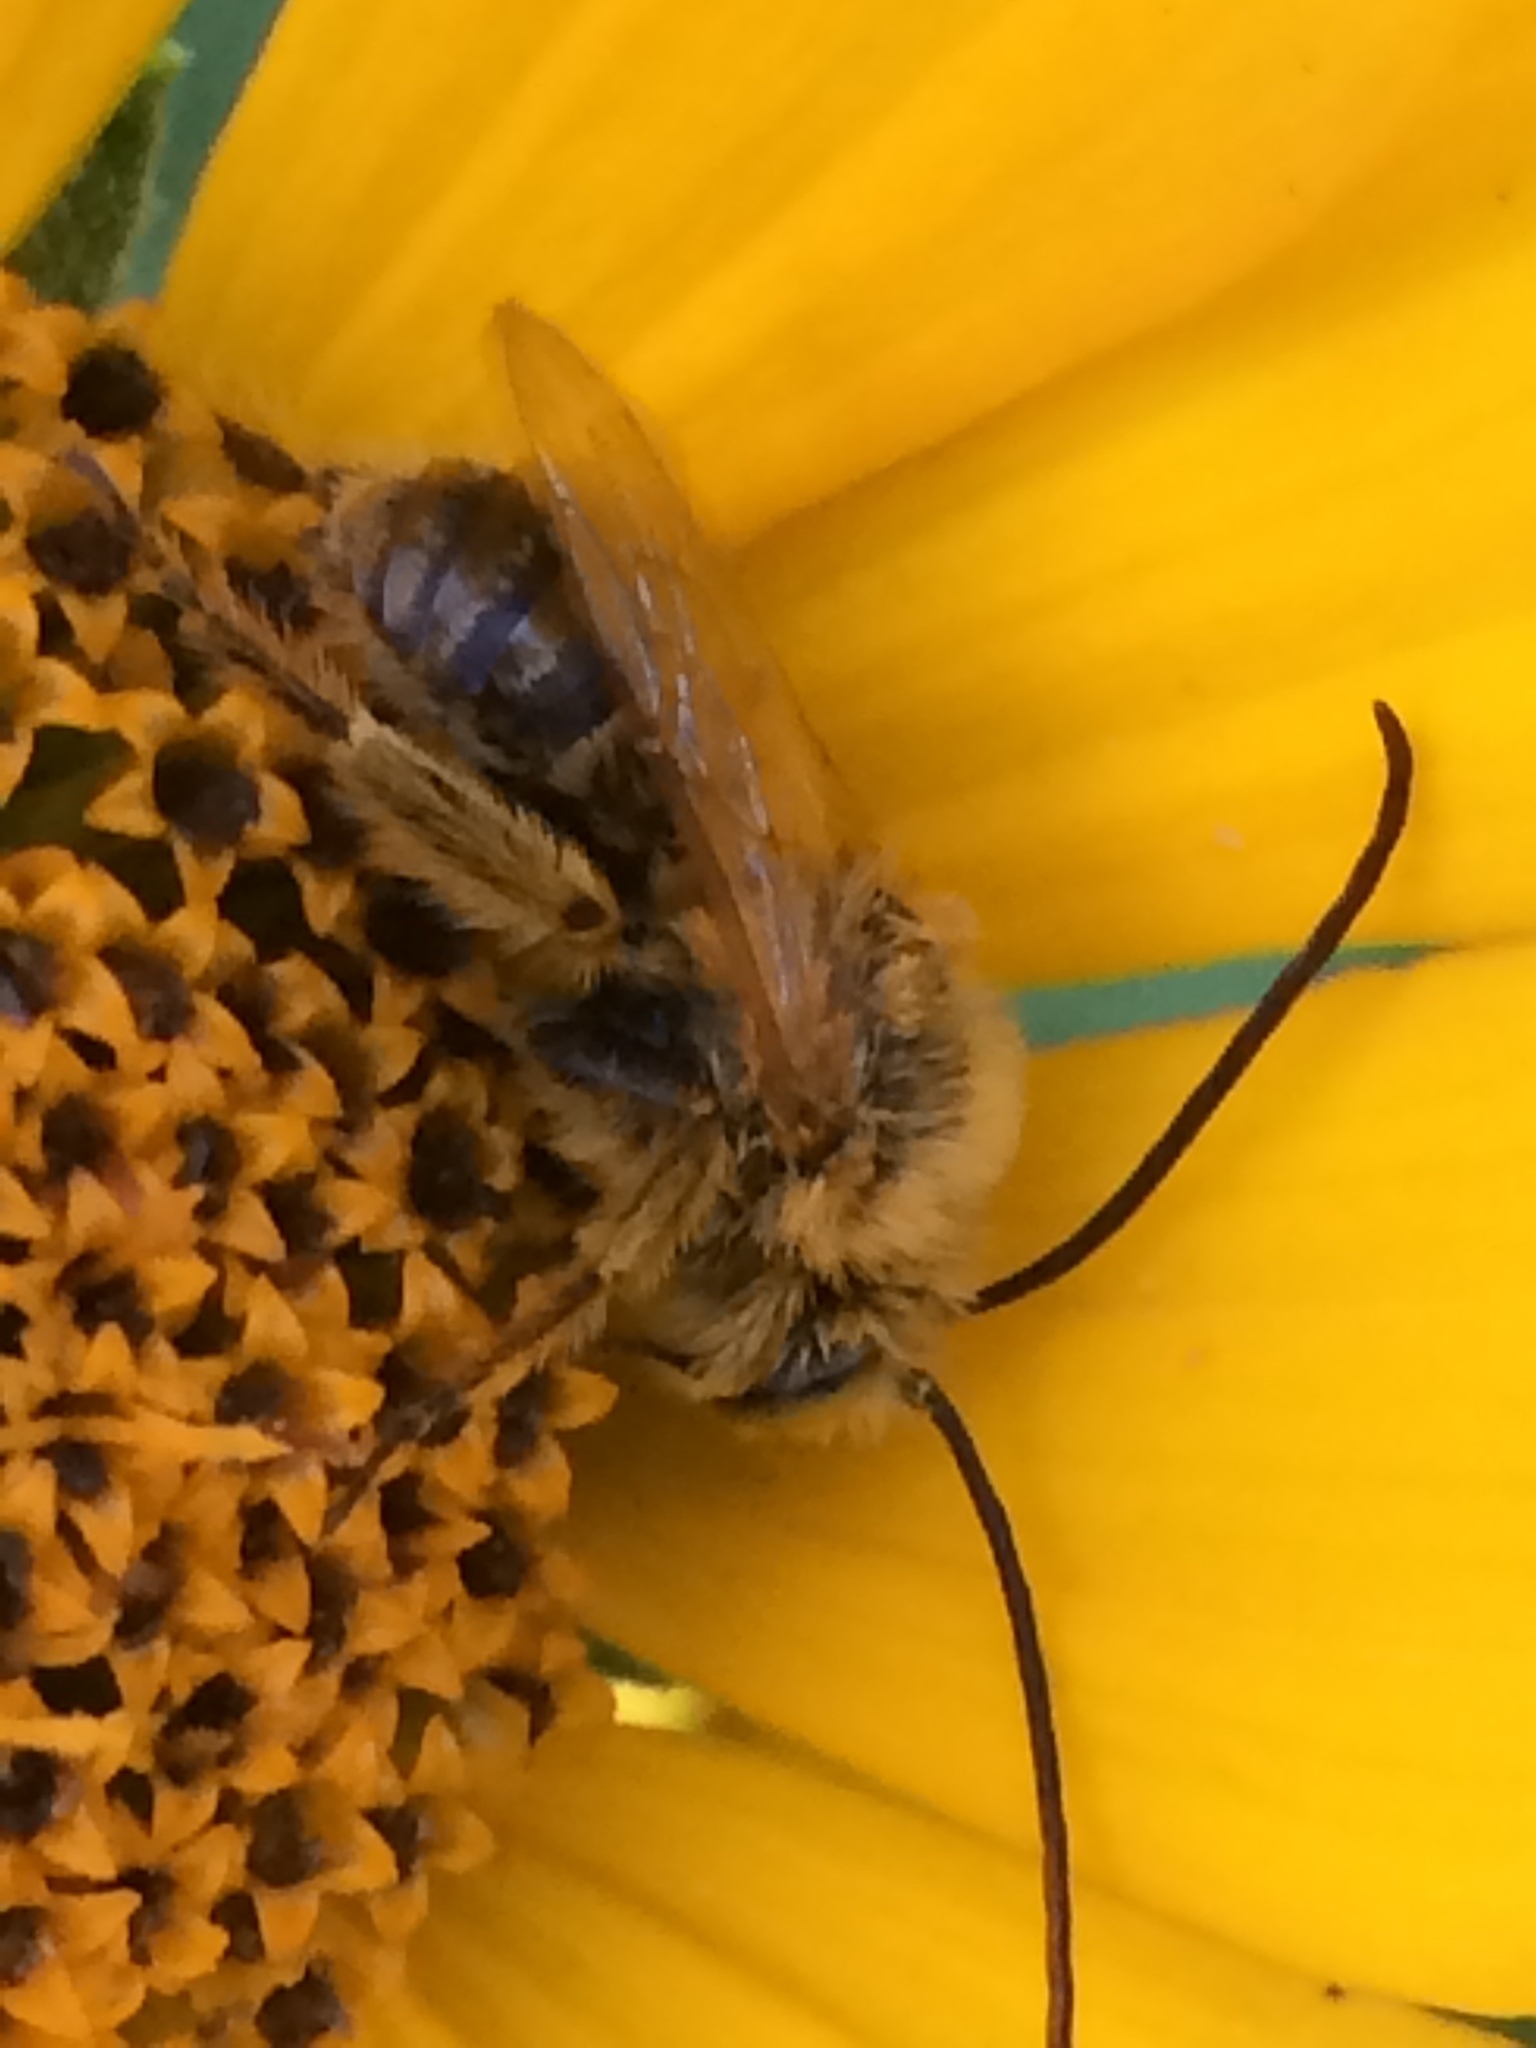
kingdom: Animalia
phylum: Arthropoda
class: Insecta
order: Hymenoptera
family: Apidae
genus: Melissodes
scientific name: Melissodes trinodis
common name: Dark-veined longhorn
